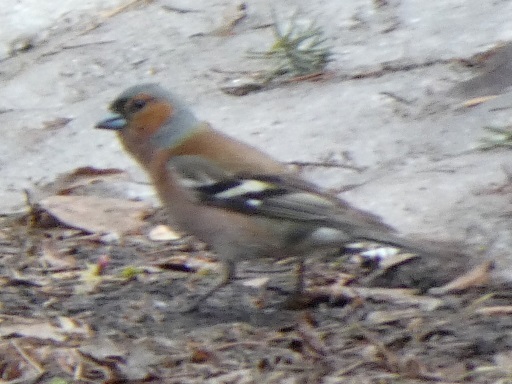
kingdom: Animalia
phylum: Chordata
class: Aves
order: Passeriformes
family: Fringillidae
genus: Fringilla
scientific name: Fringilla coelebs
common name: Common chaffinch
